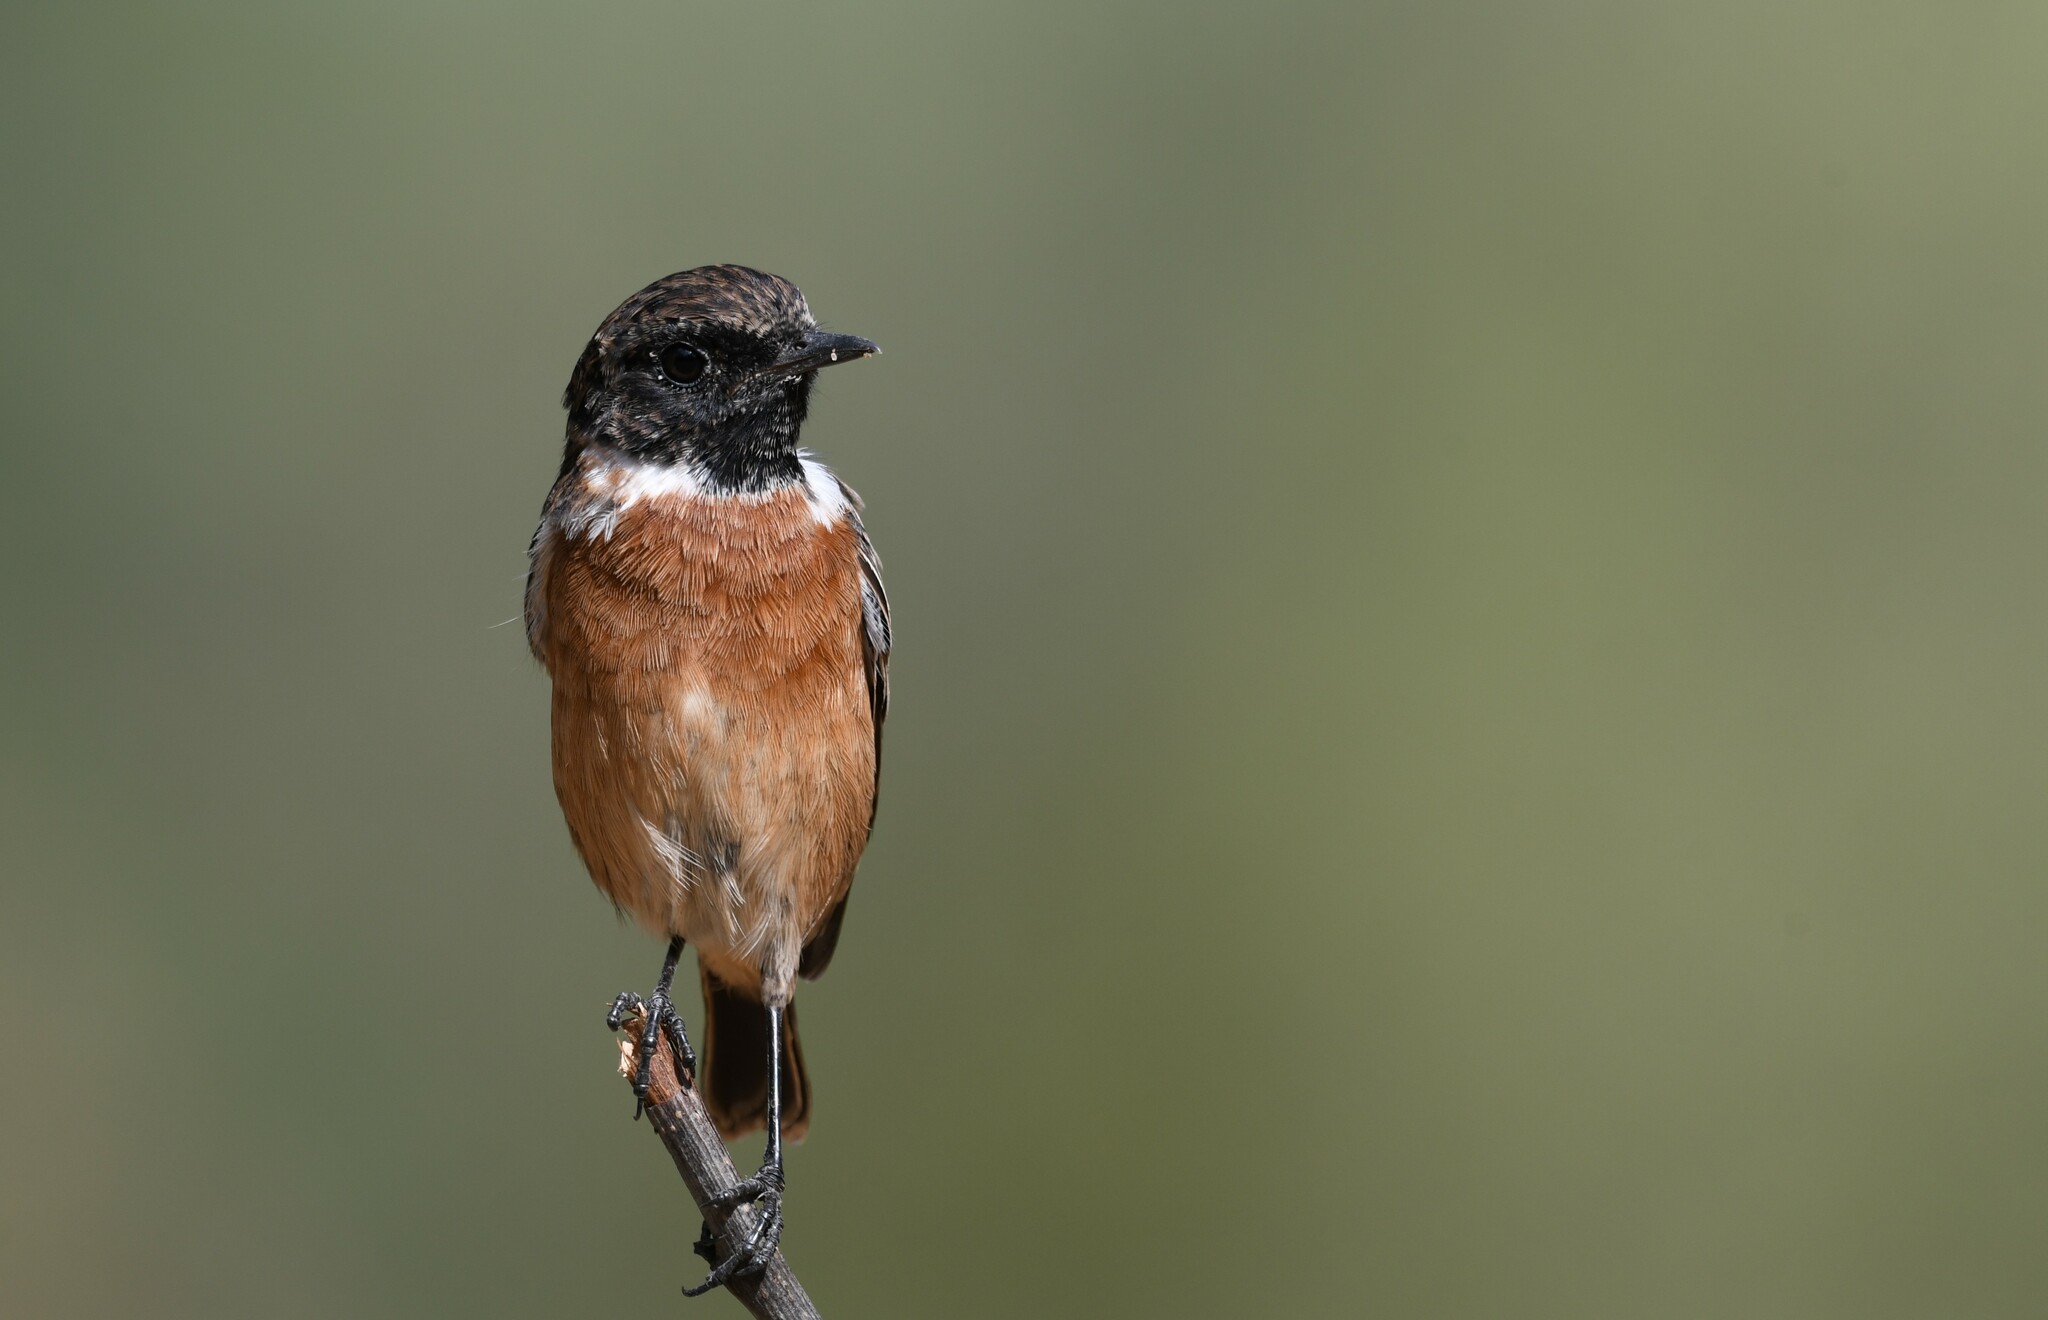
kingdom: Animalia
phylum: Chordata
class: Aves
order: Passeriformes
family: Muscicapidae
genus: Saxicola
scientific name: Saxicola rubicola
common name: European stonechat
